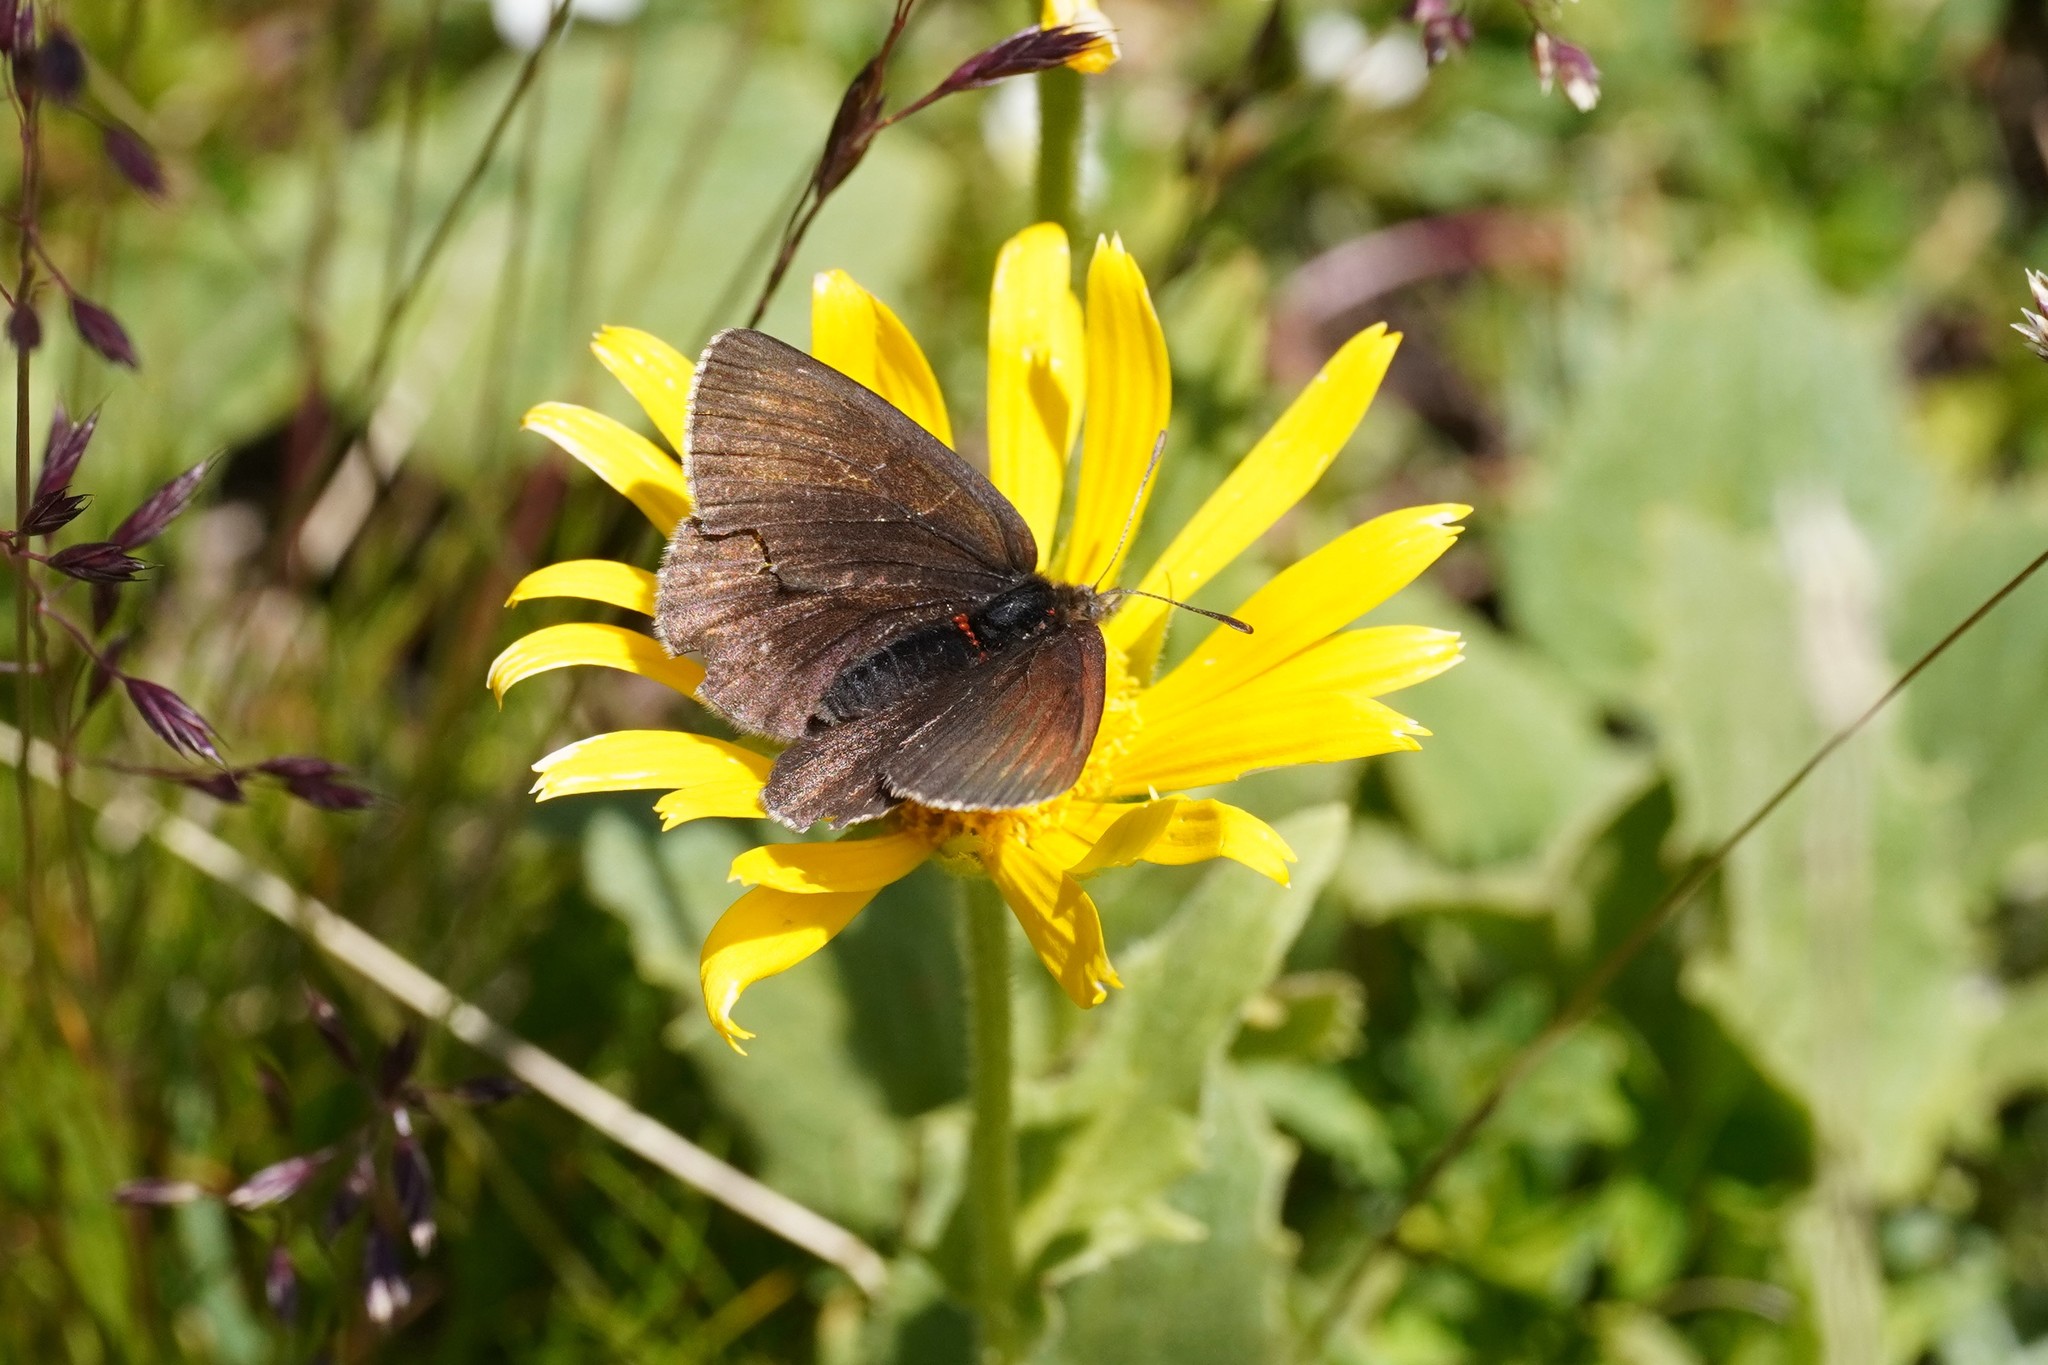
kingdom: Animalia
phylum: Arthropoda
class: Insecta
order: Lepidoptera
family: Nymphalidae
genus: Erebia
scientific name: Erebia pluto
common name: Sooty ringlet
